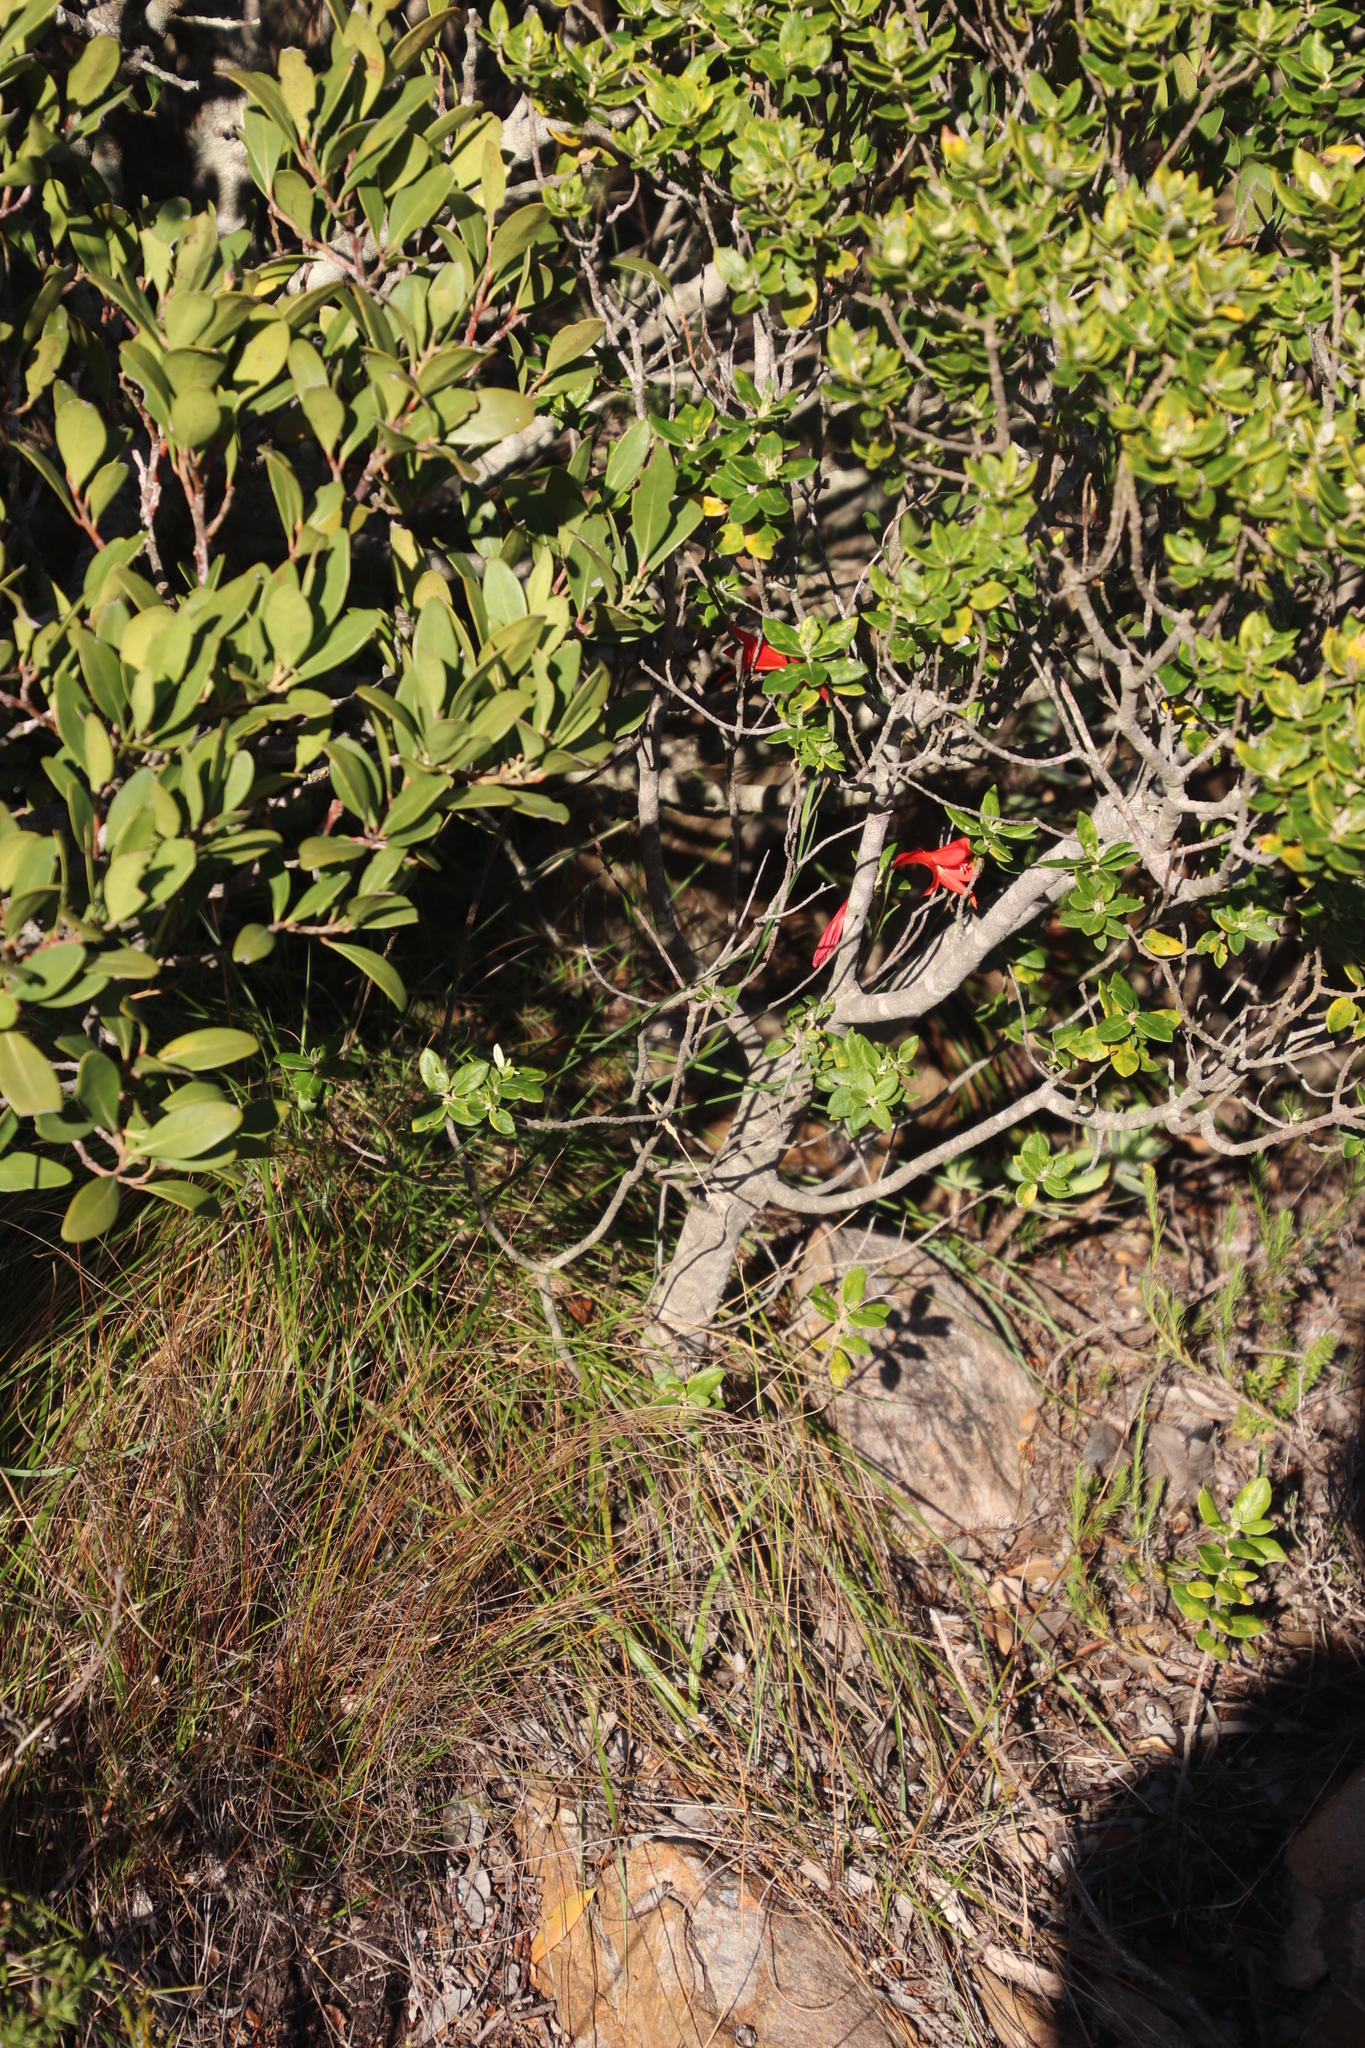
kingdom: Plantae
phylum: Tracheophyta
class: Liliopsida
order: Asparagales
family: Iridaceae
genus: Gladiolus
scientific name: Gladiolus priorii
